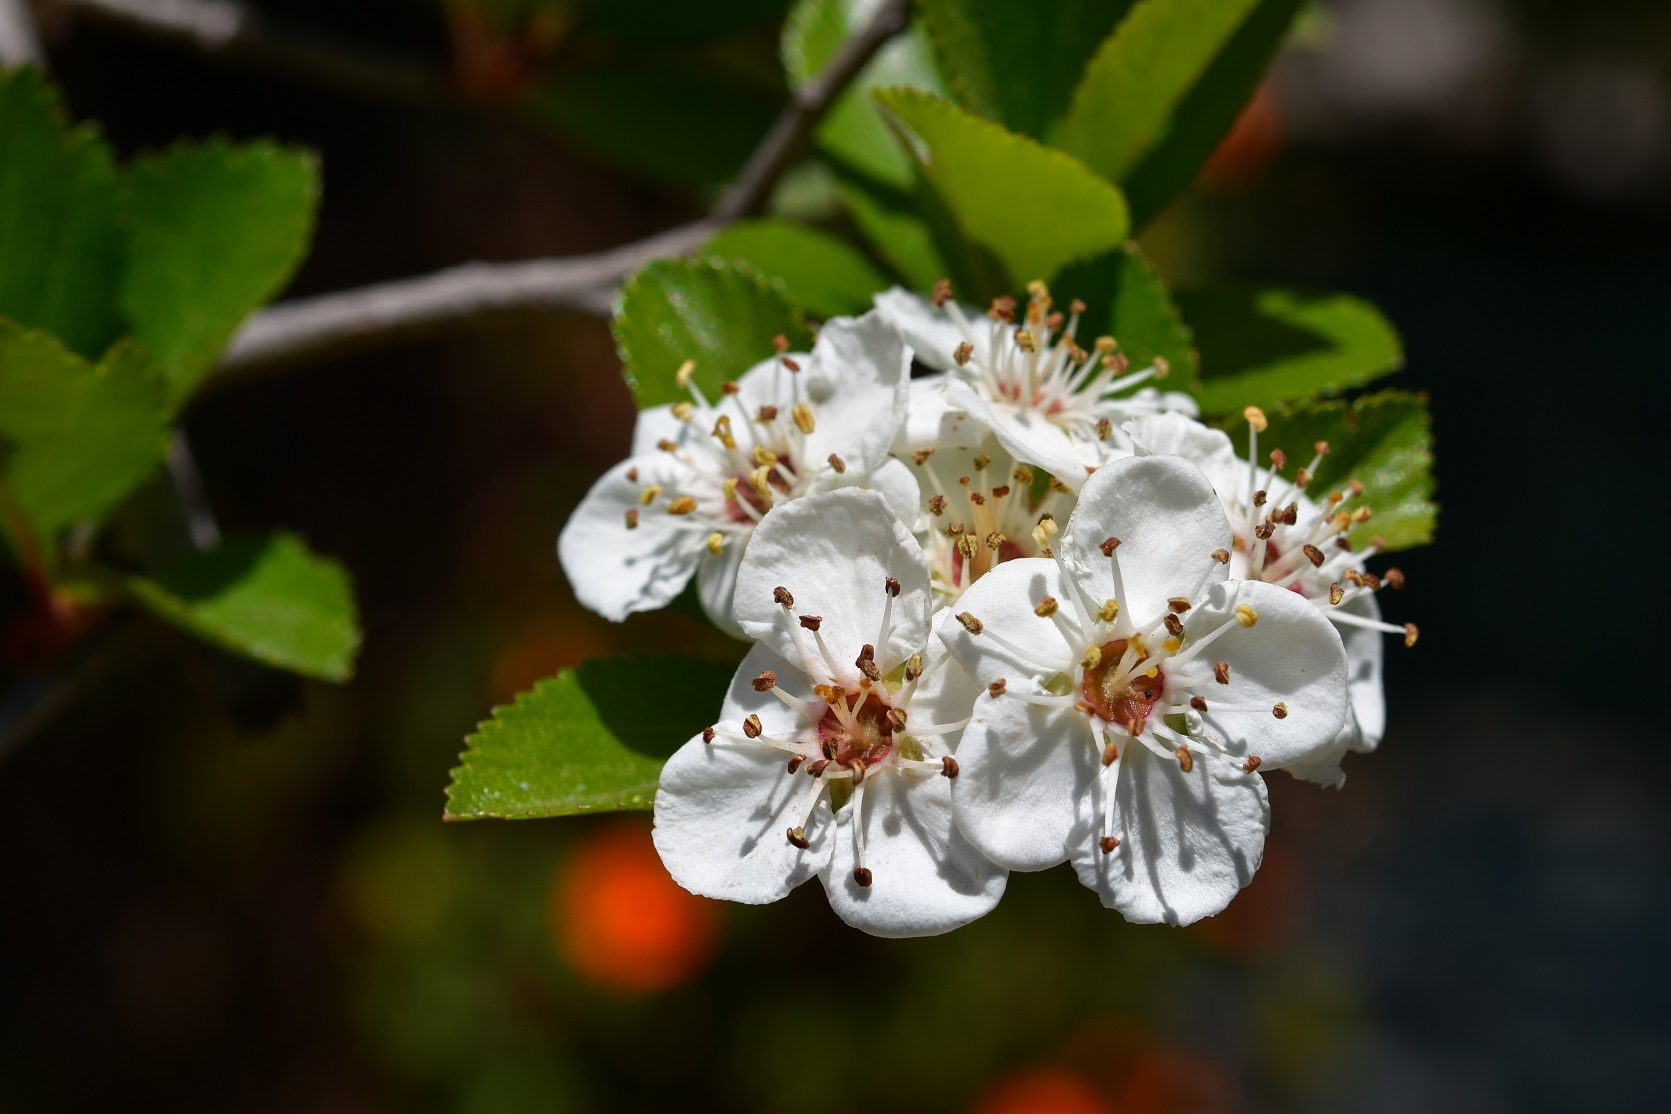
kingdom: Plantae
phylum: Tracheophyta
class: Magnoliopsida
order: Rosales
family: Rosaceae
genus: Crataegus
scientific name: Crataegus mexicana
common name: Mexican hawthorn
